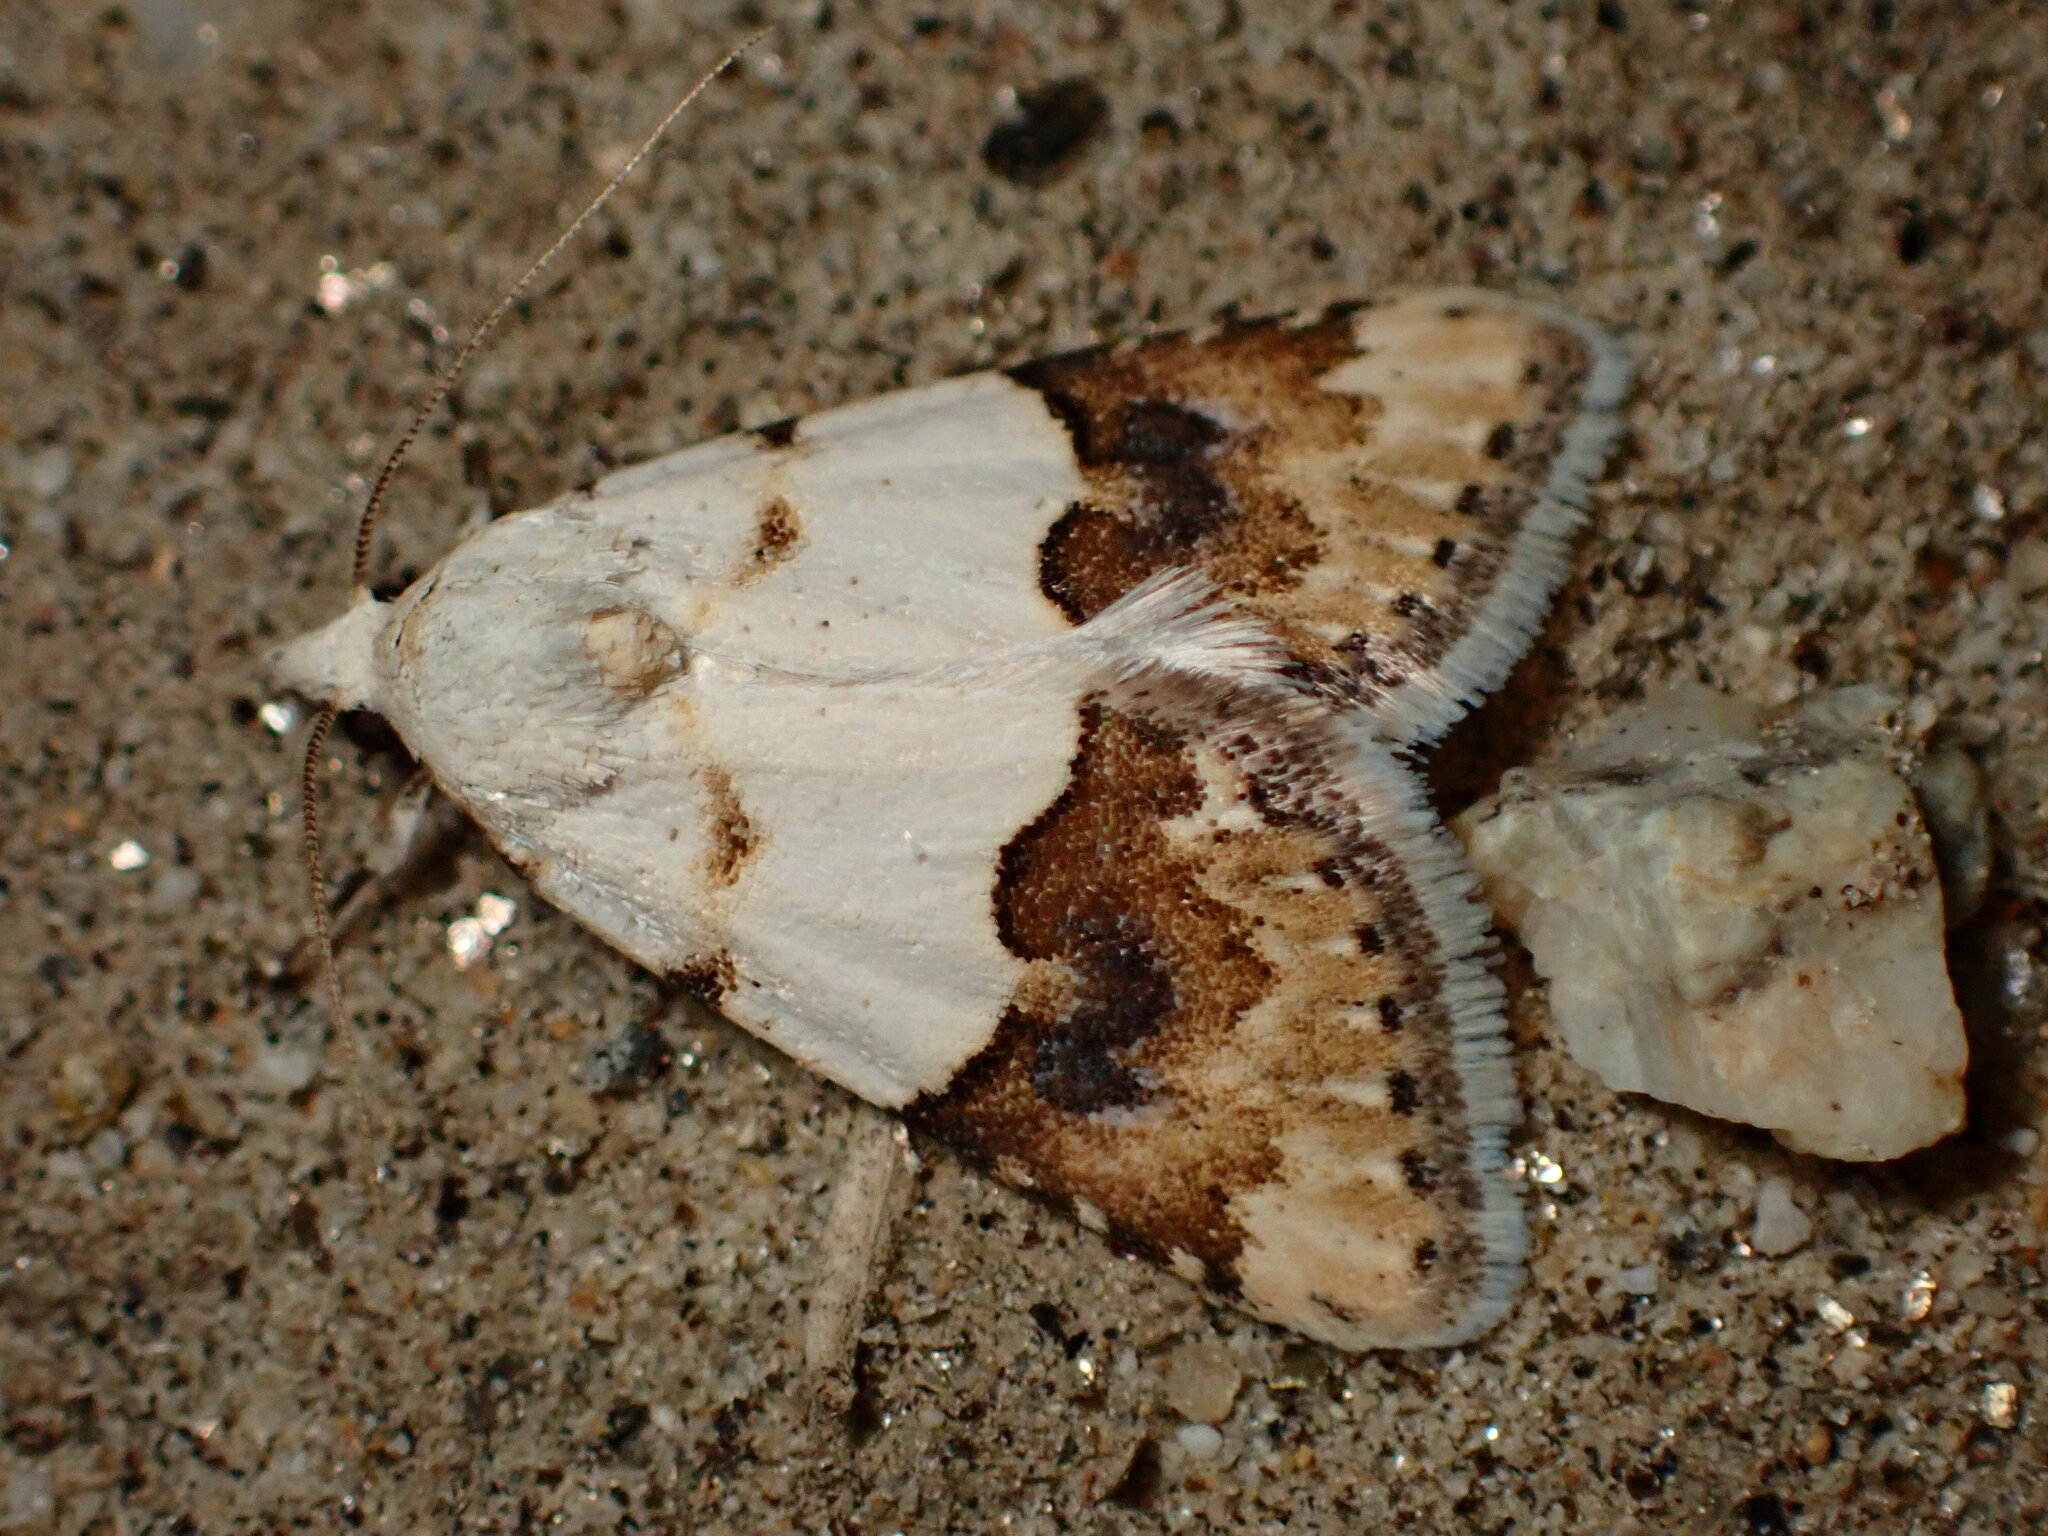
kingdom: Animalia
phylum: Arthropoda
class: Insecta
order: Lepidoptera
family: Noctuidae
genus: Euaontia
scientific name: Euaontia clarki
